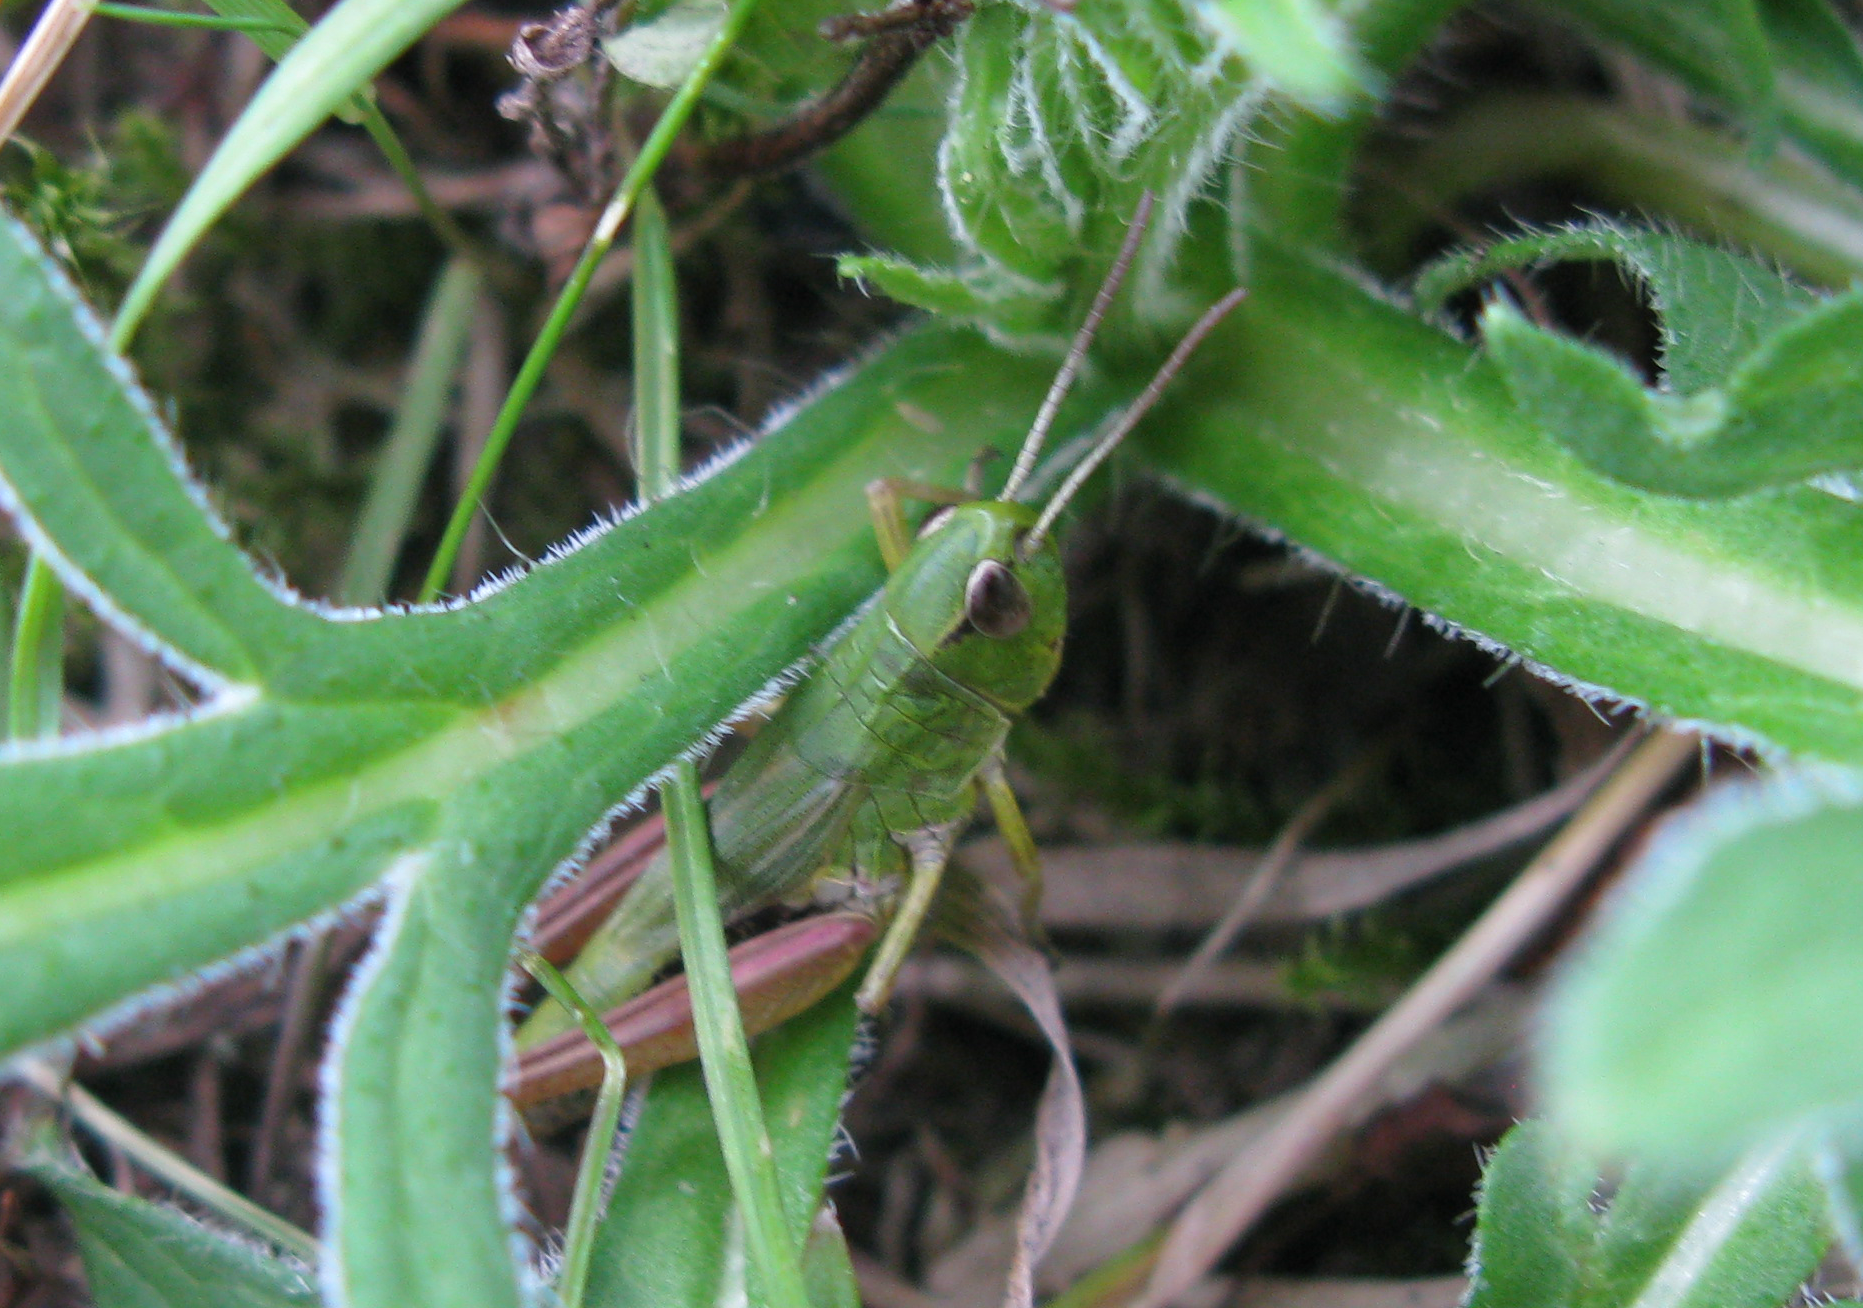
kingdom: Animalia
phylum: Arthropoda
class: Insecta
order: Orthoptera
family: Acrididae
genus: Pseudochorthippus
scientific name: Pseudochorthippus parallelus
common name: Meadow grasshopper
